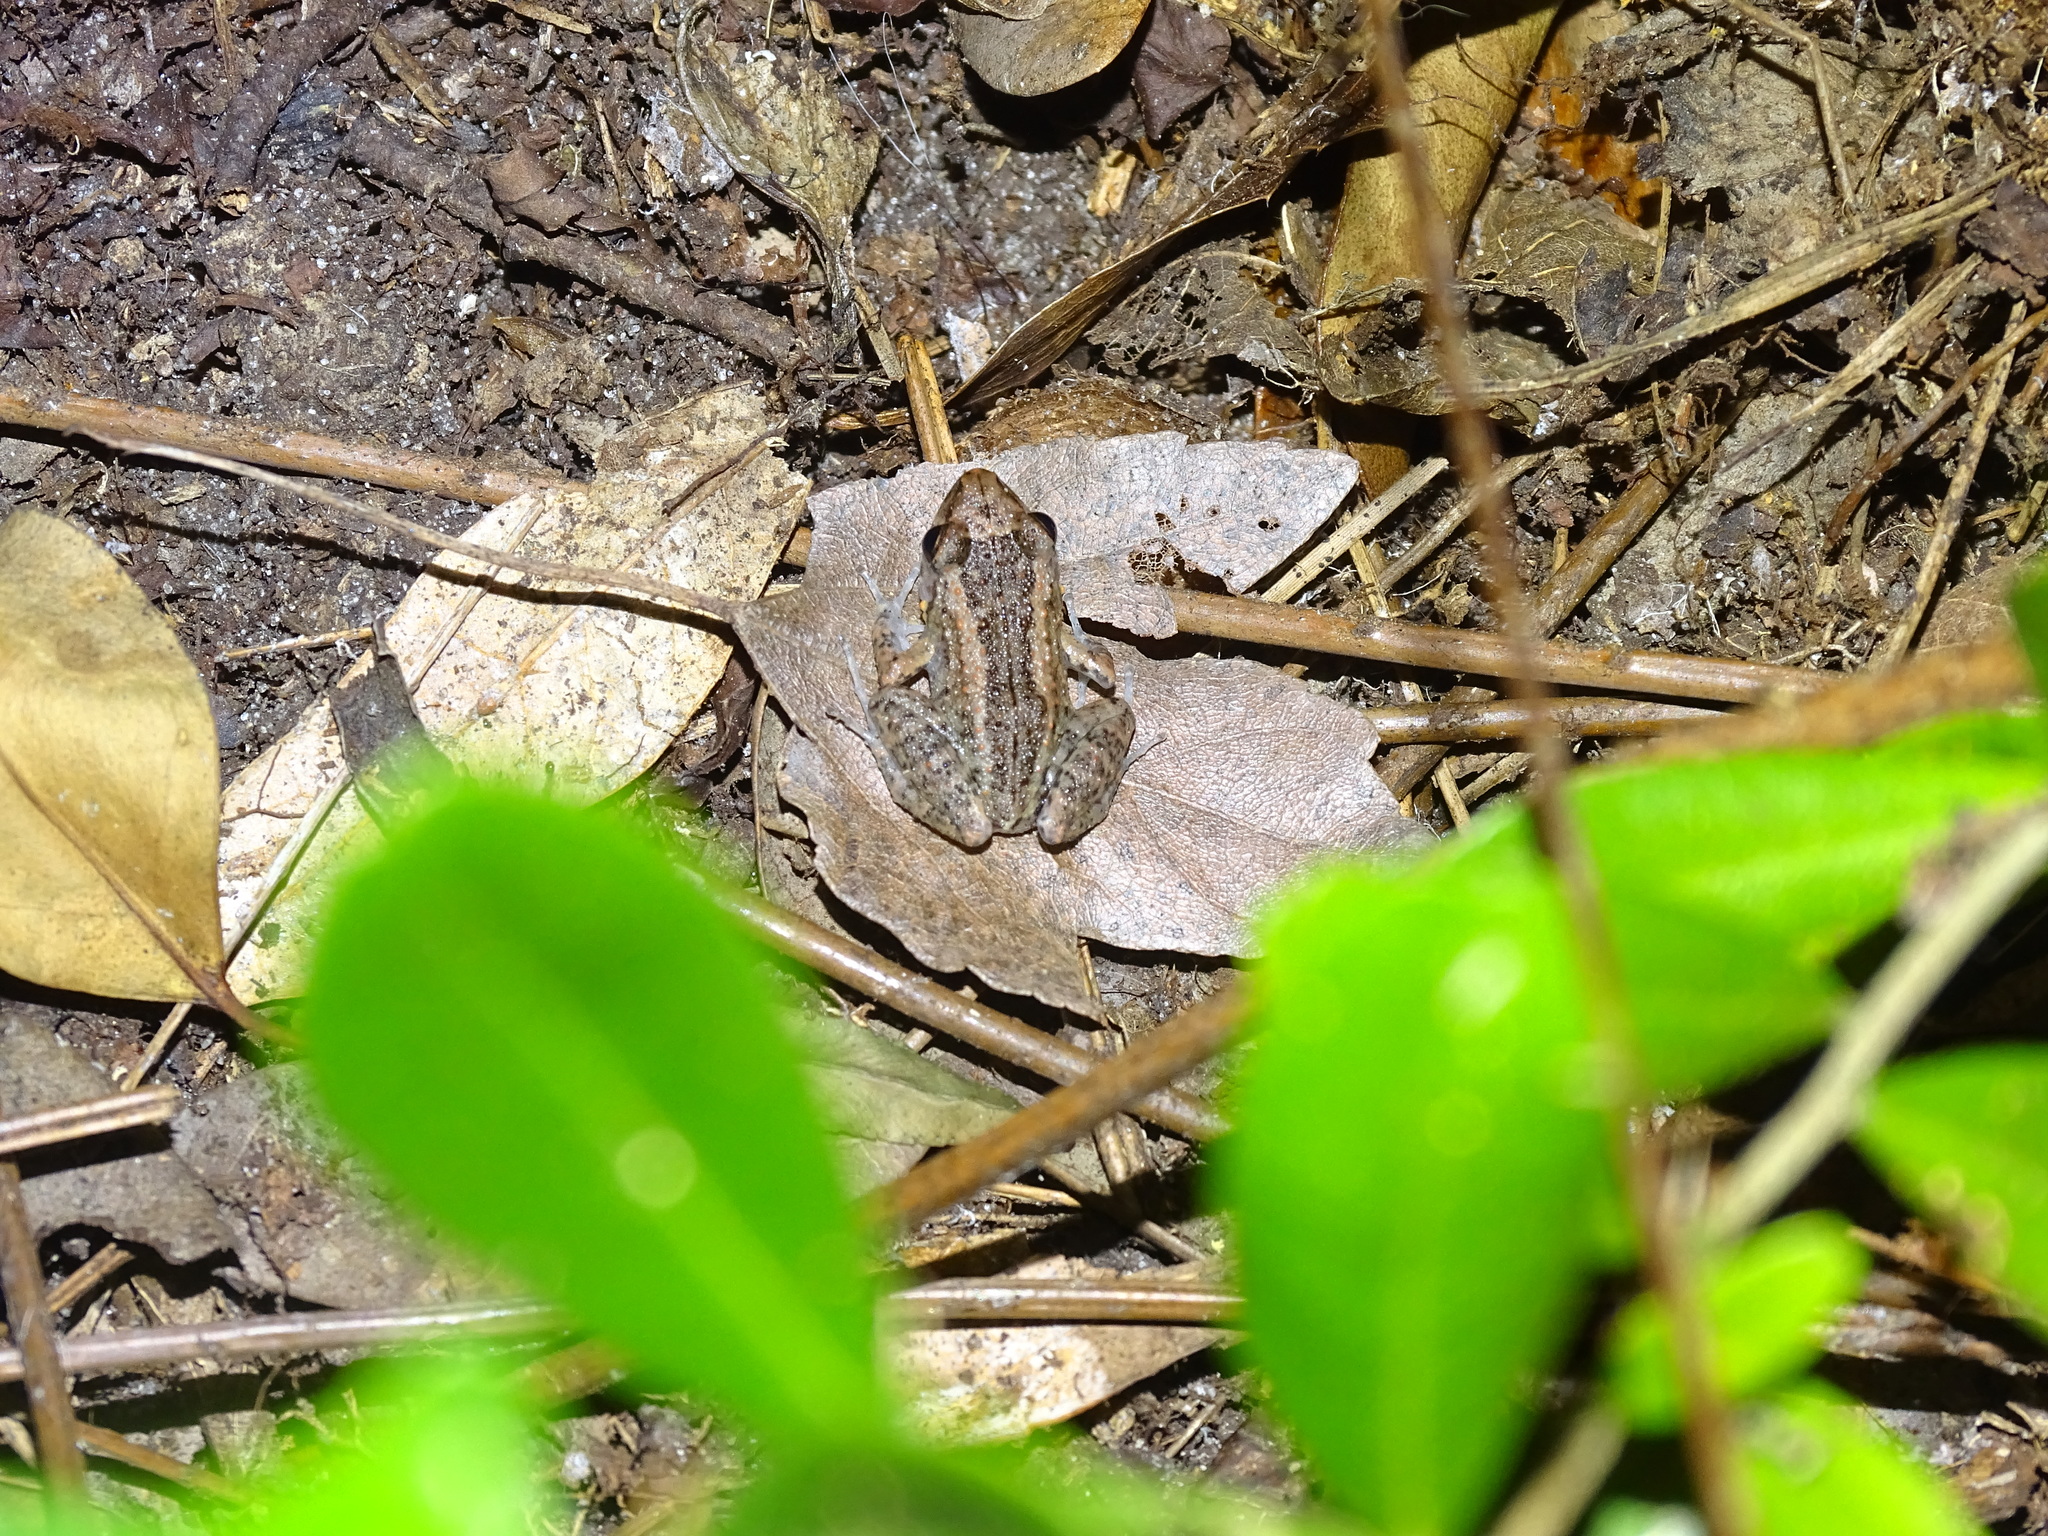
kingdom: Animalia
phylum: Chordata
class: Amphibia
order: Anura
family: Eleutherodactylidae
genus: Eleutherodactylus
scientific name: Eleutherodactylus planirostris
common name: Greenhouse frog
